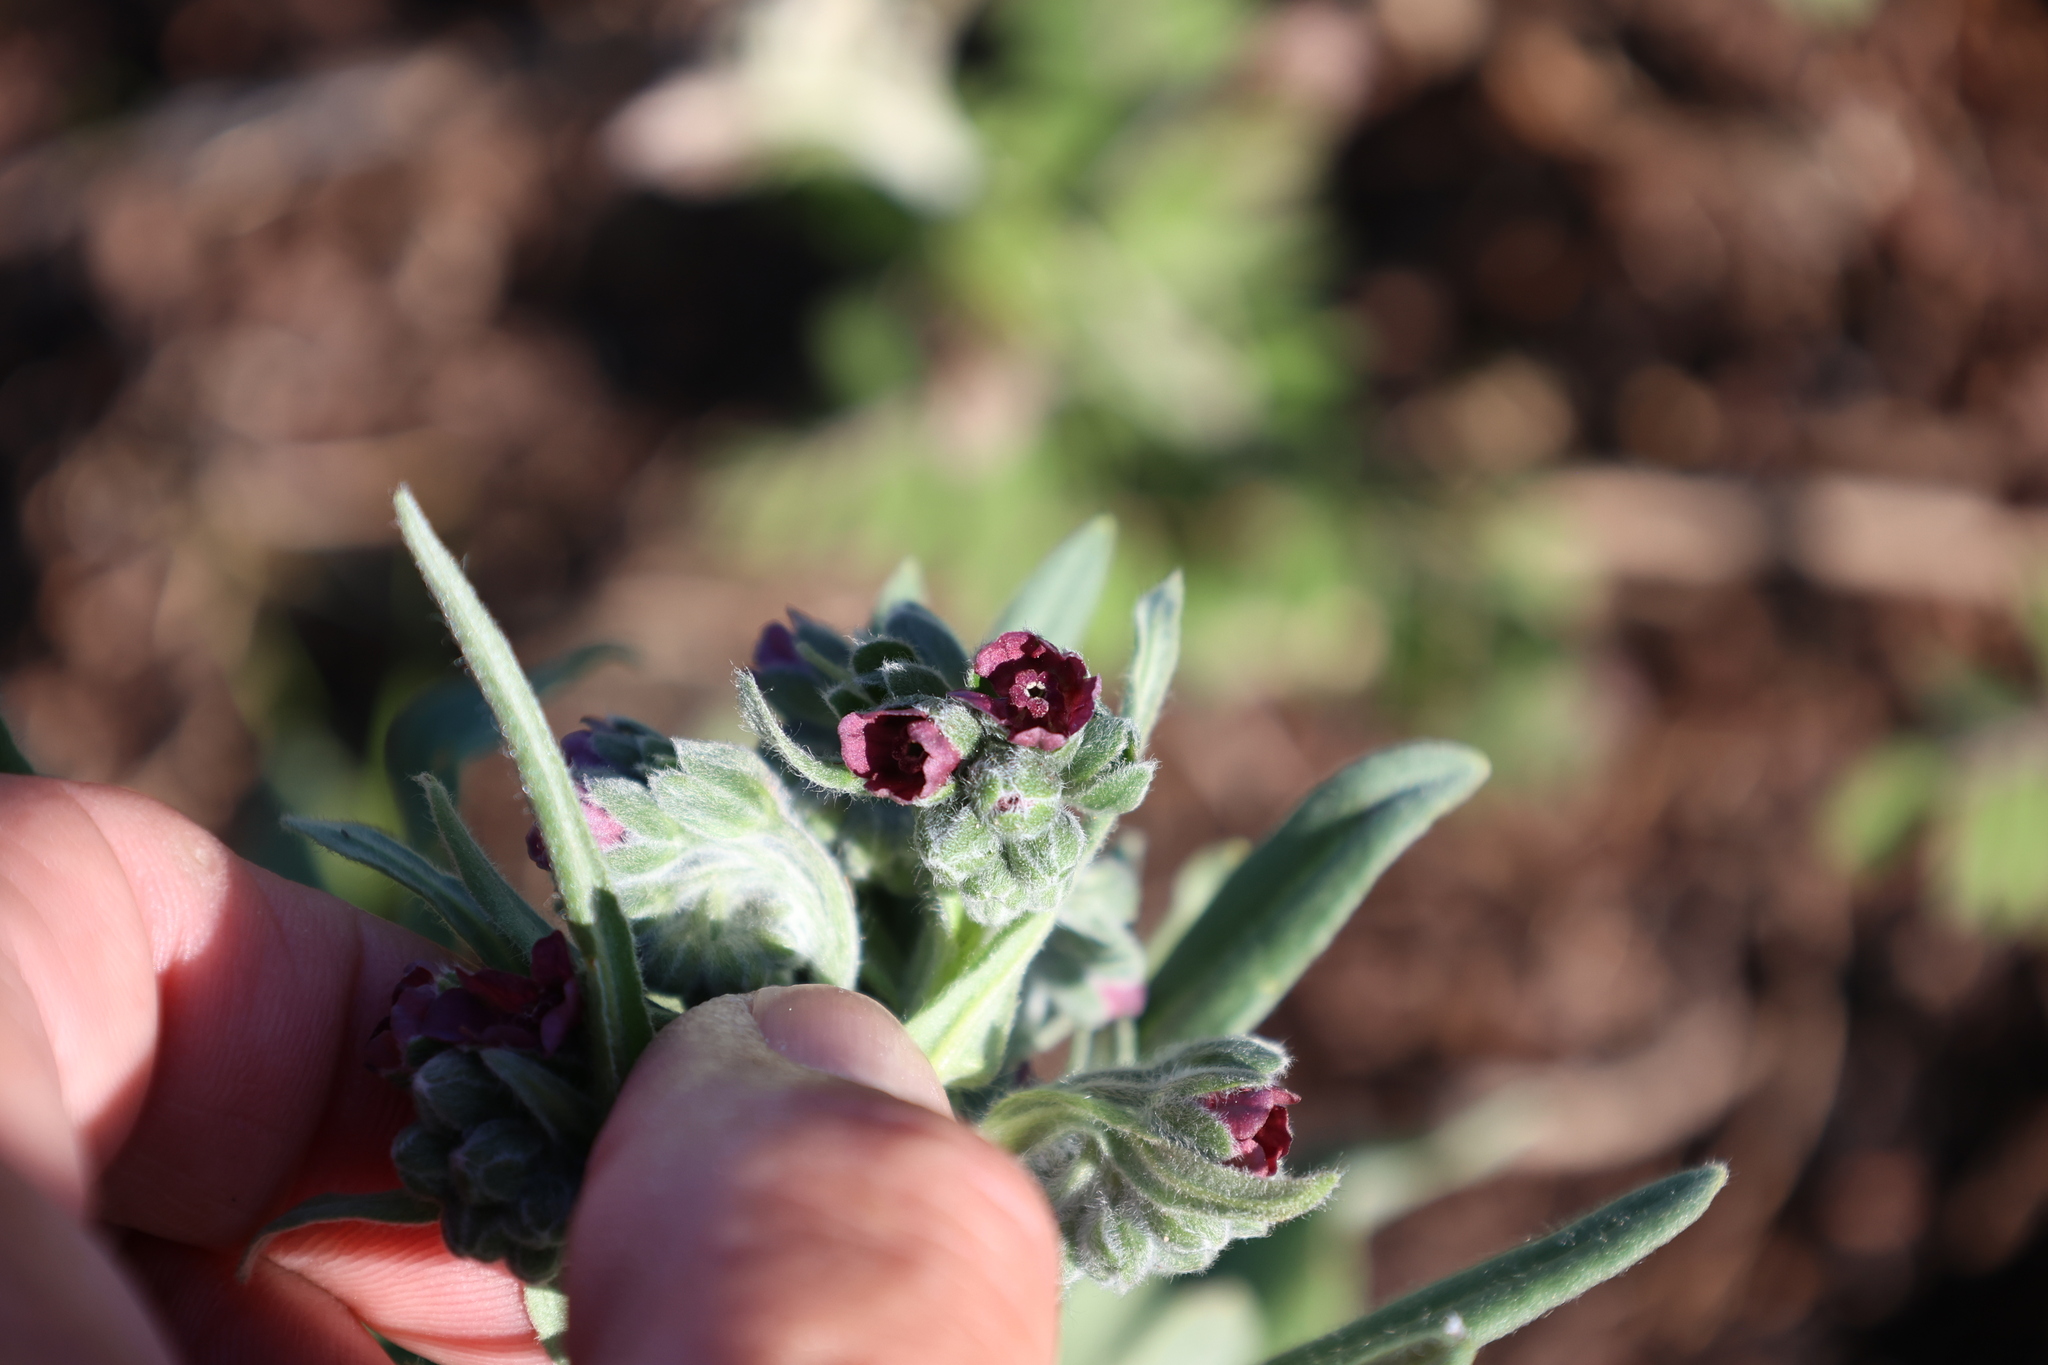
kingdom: Plantae
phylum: Tracheophyta
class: Magnoliopsida
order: Boraginales
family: Boraginaceae
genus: Cynoglossum
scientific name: Cynoglossum officinale
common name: Hound's-tongue
